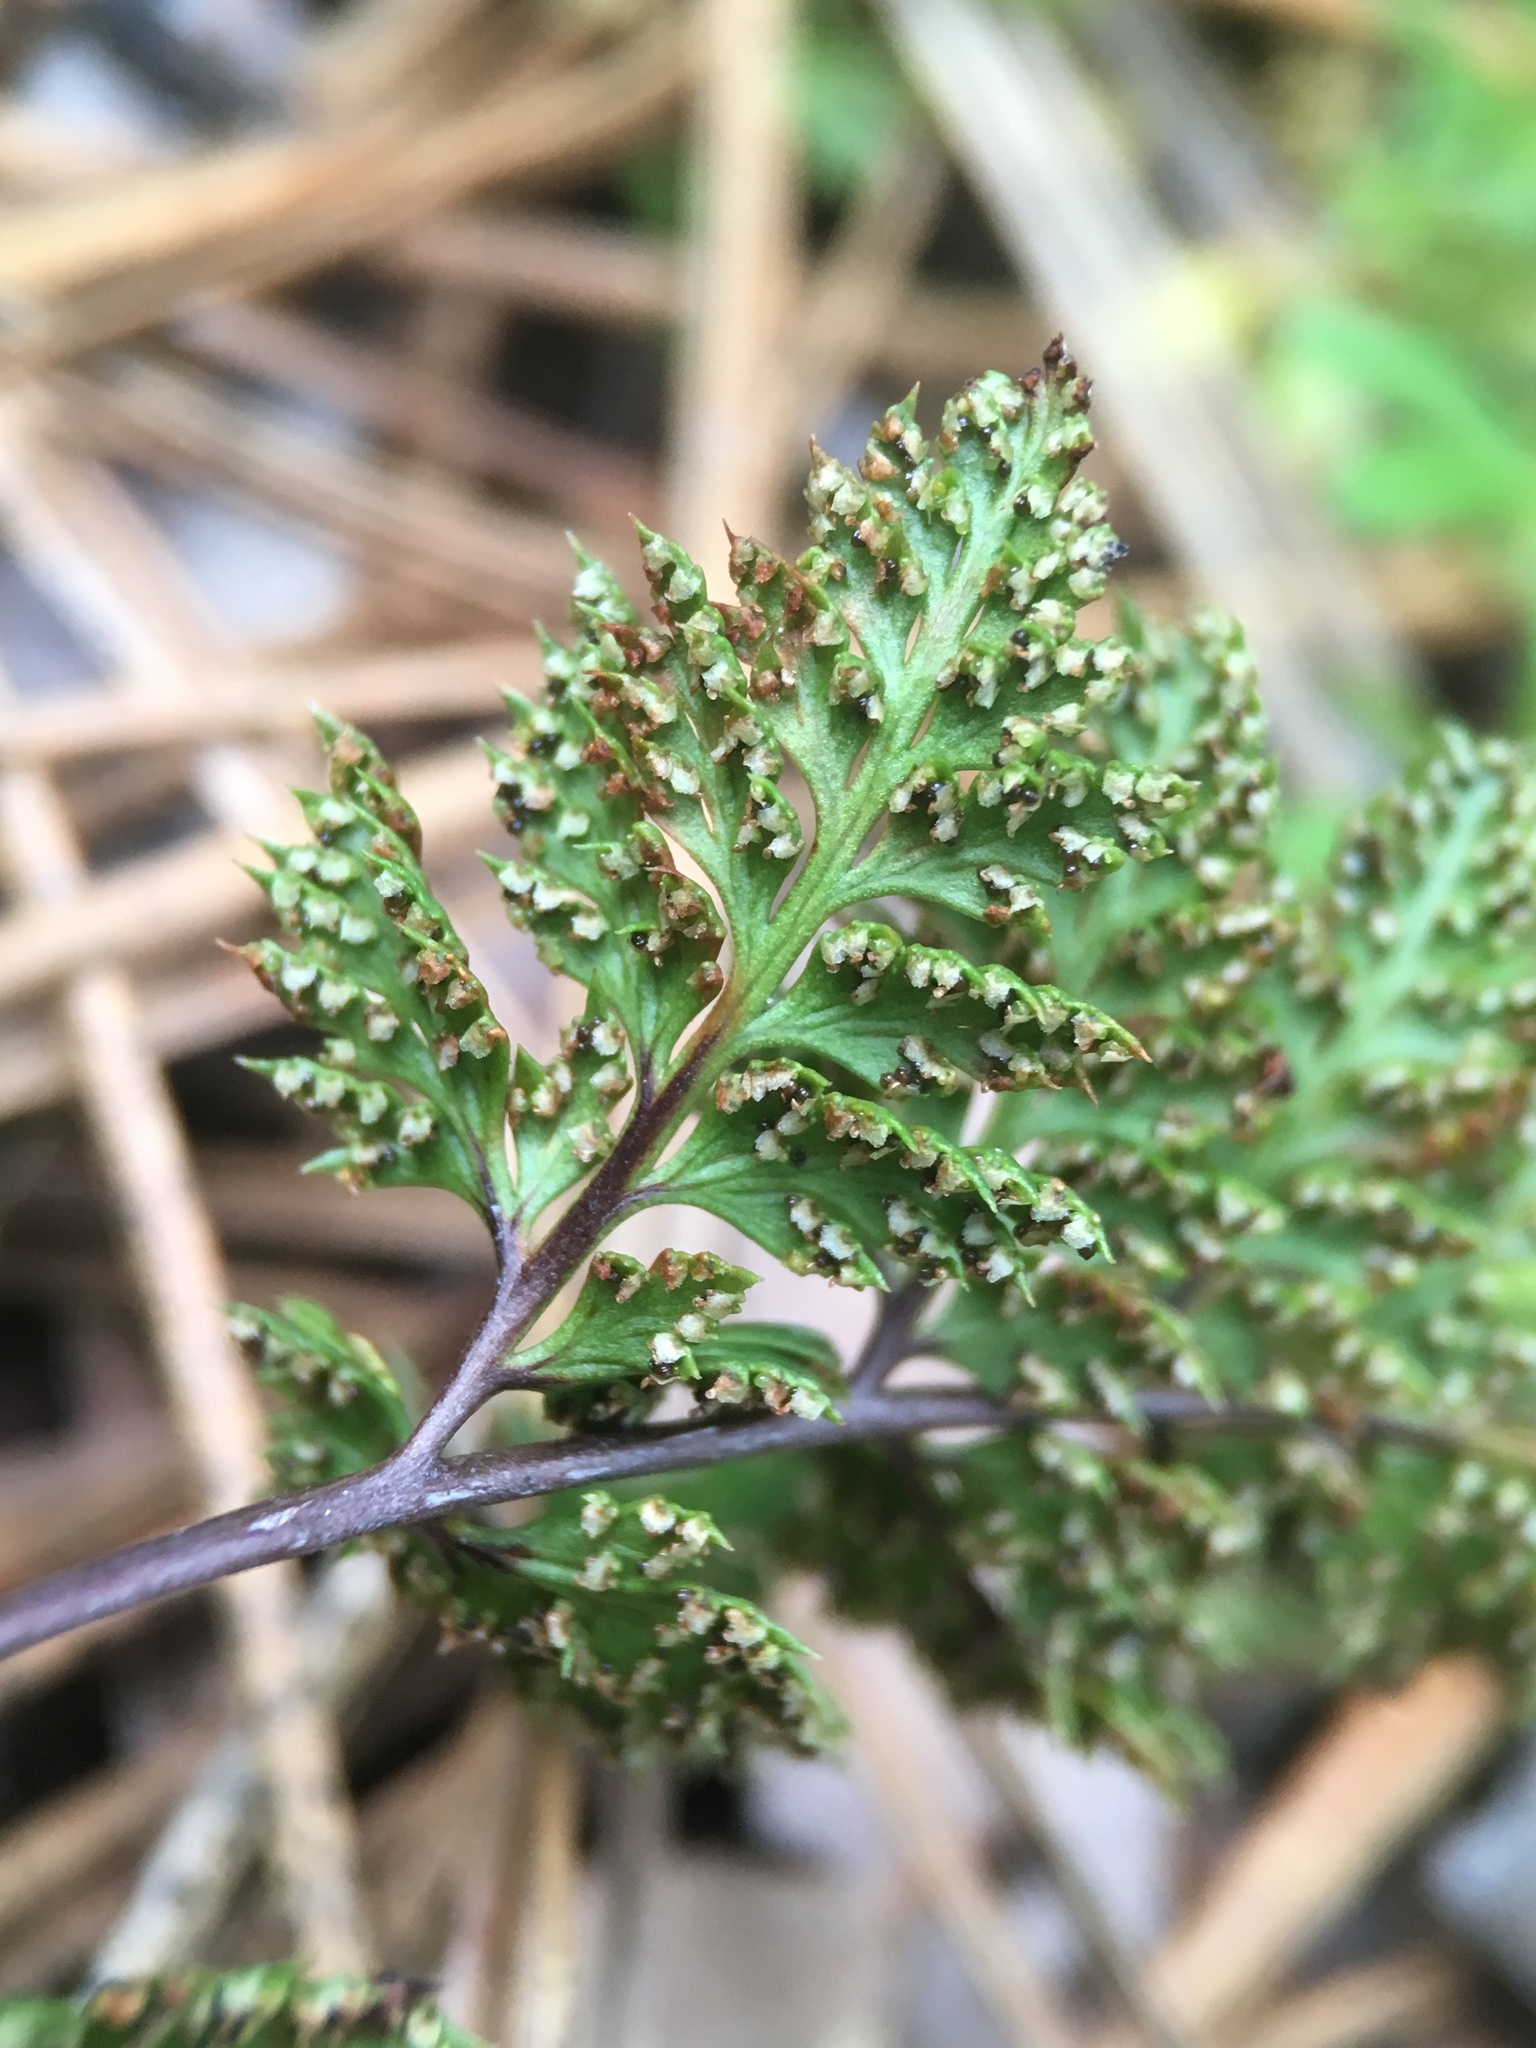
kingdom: Plantae
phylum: Tracheophyta
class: Polypodiopsida
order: Polypodiales
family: Pteridaceae
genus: Aspidotis
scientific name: Aspidotis californica
